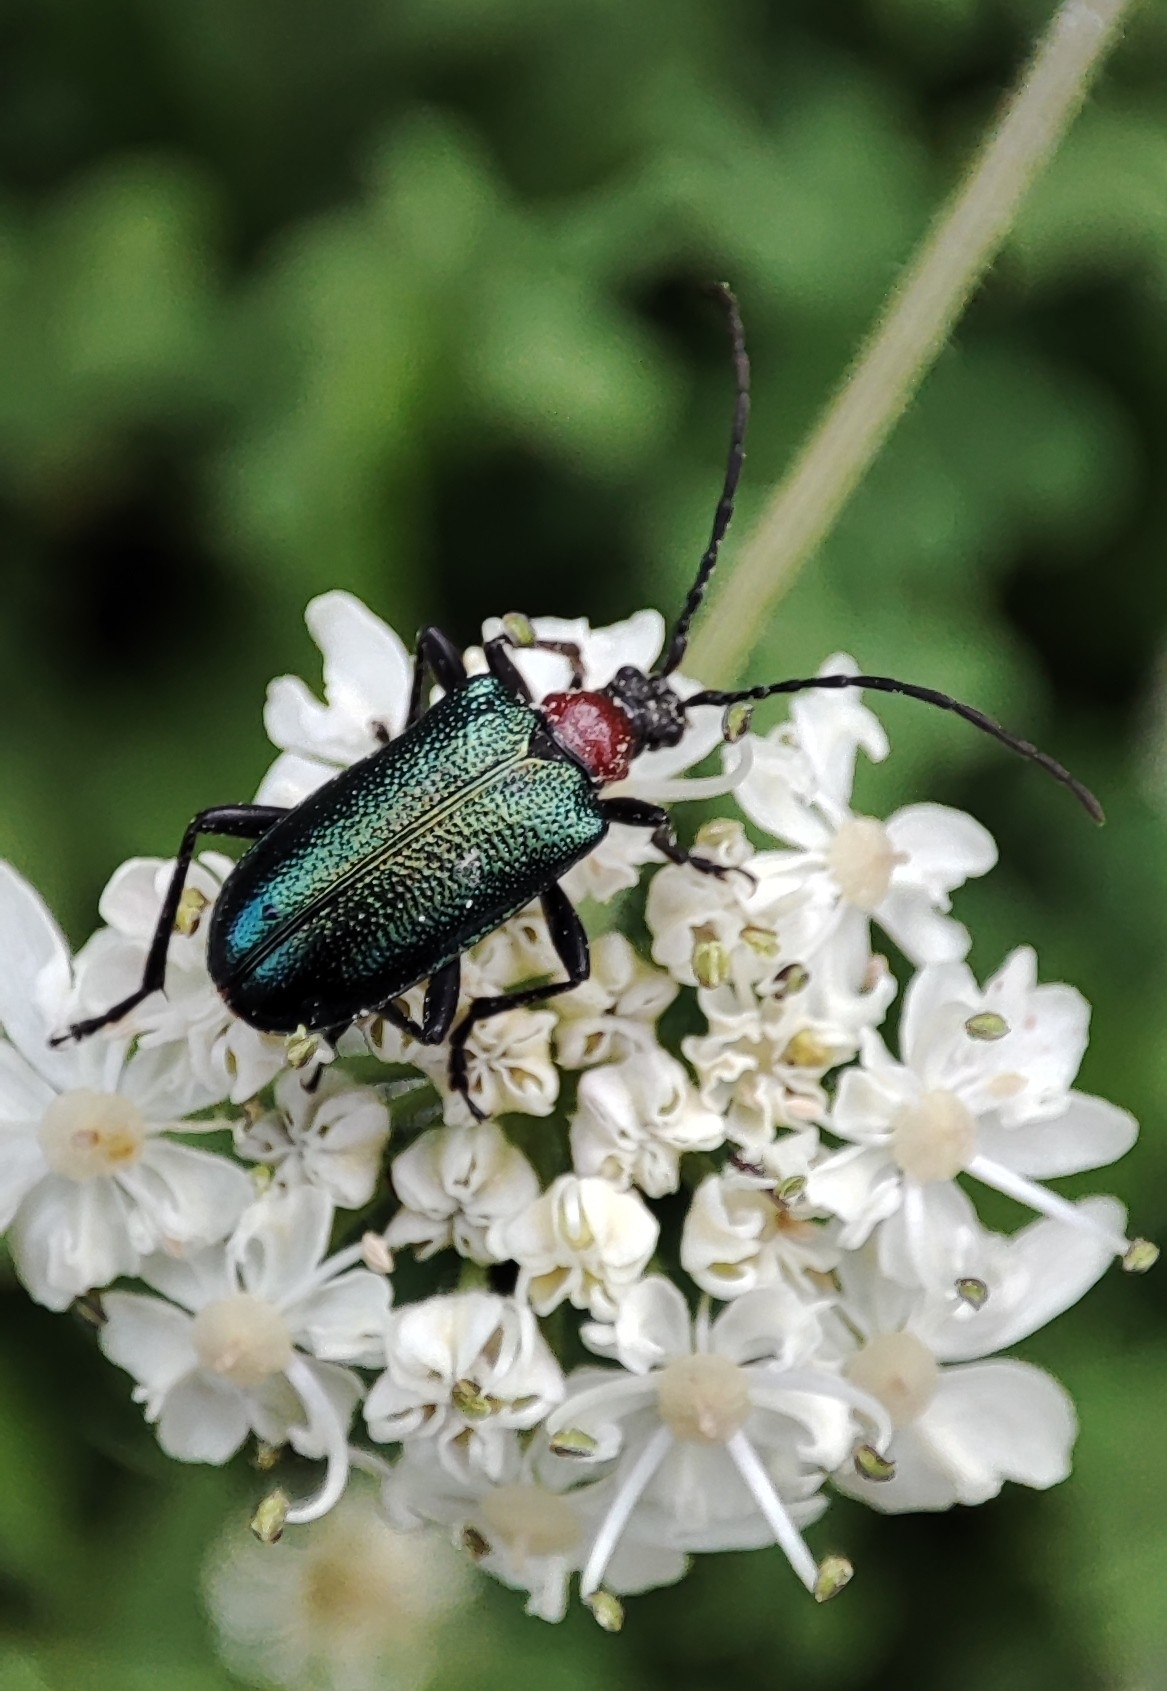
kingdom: Animalia
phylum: Arthropoda
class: Insecta
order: Coleoptera
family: Cerambycidae
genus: Gaurotes
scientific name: Gaurotes virginea
